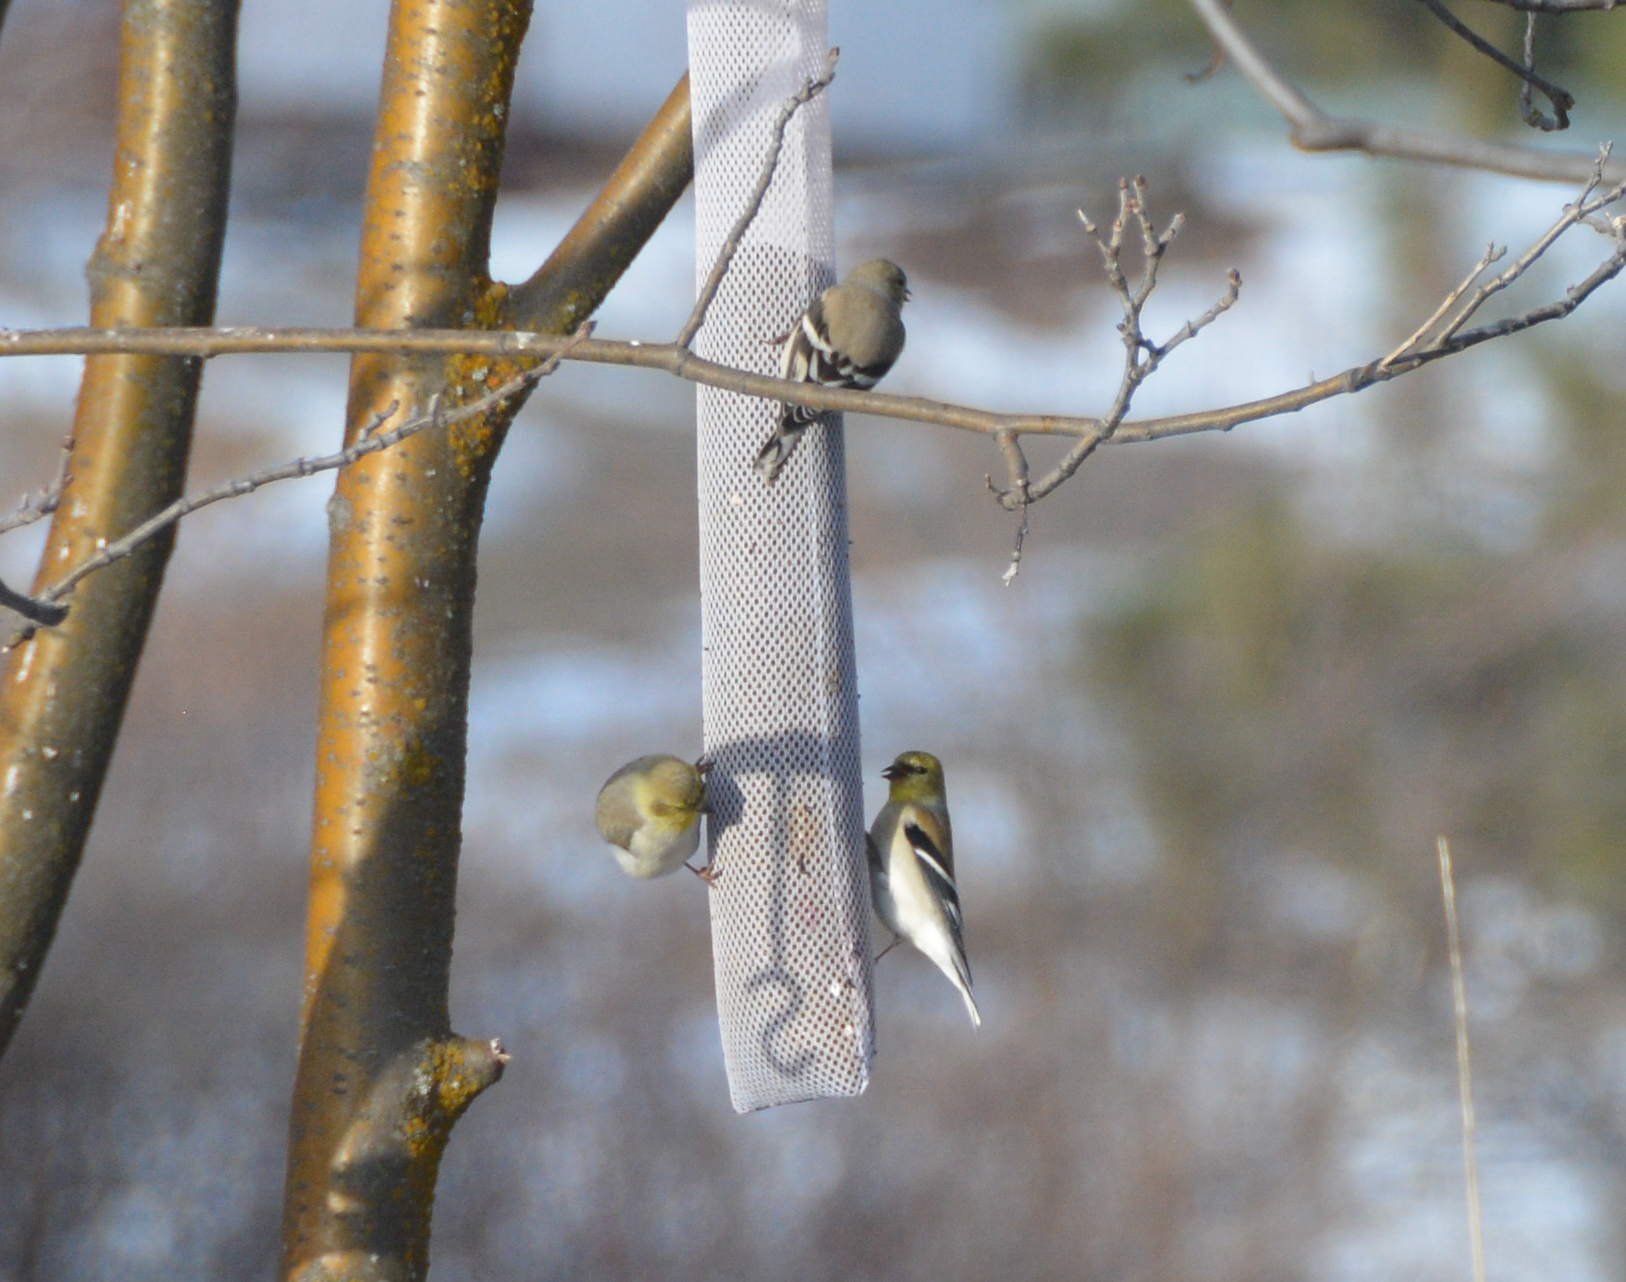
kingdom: Animalia
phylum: Chordata
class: Aves
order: Passeriformes
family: Fringillidae
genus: Spinus
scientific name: Spinus tristis
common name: American goldfinch
